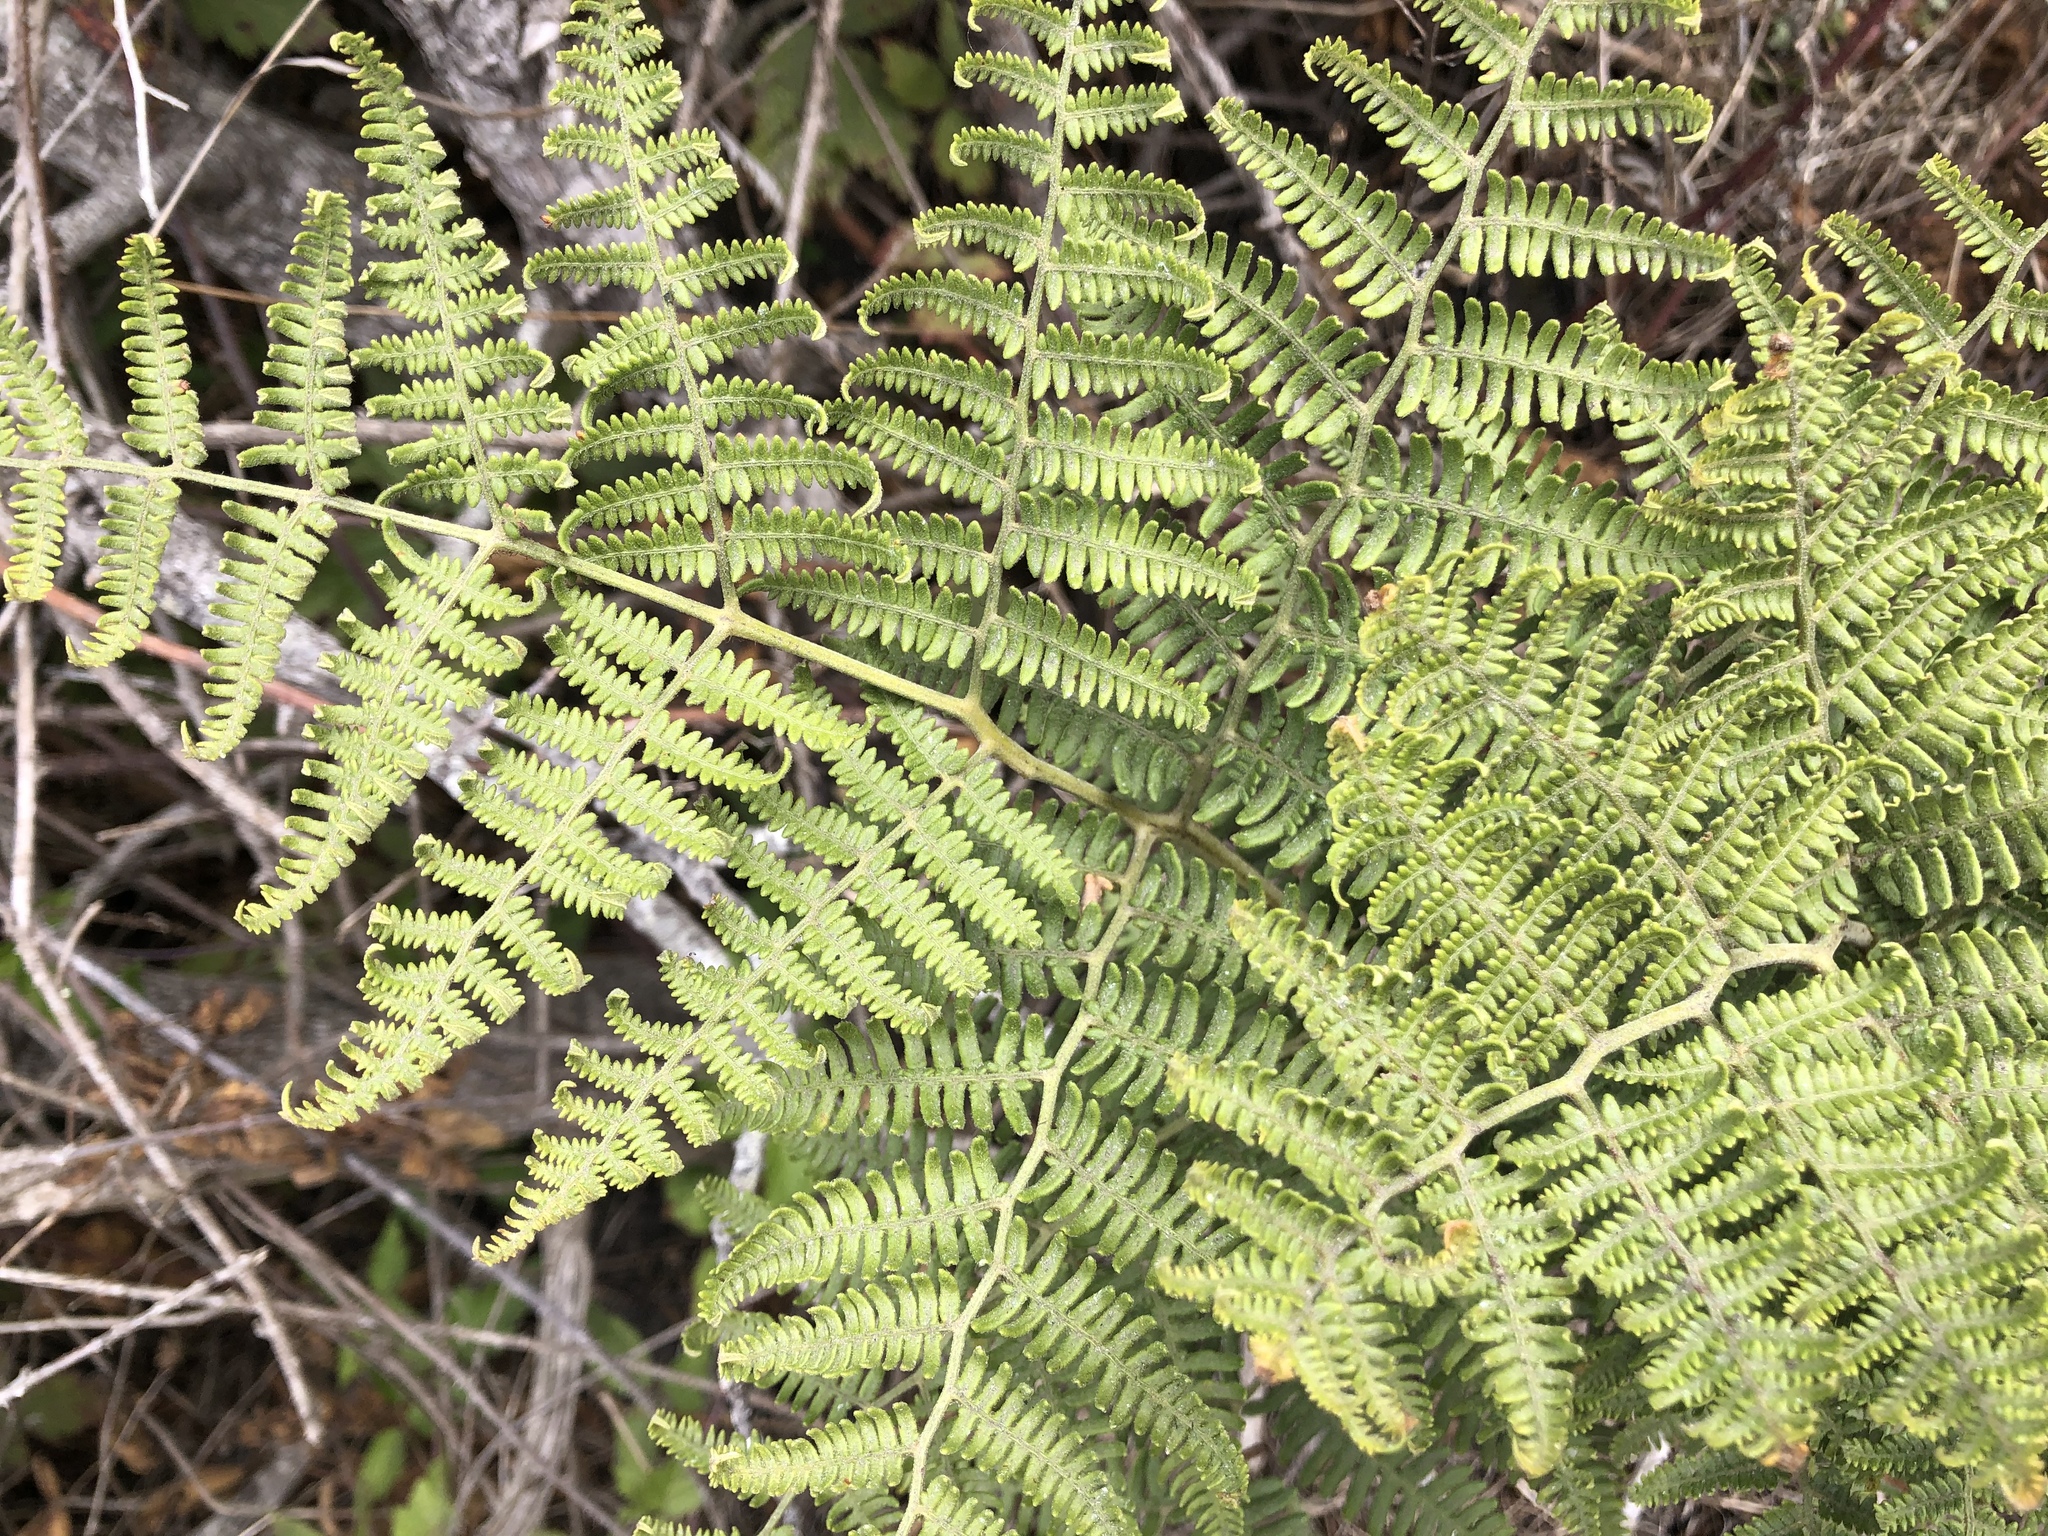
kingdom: Plantae
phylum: Tracheophyta
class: Polypodiopsida
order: Polypodiales
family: Dennstaedtiaceae
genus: Pteridium
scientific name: Pteridium aquilinum
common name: Bracken
